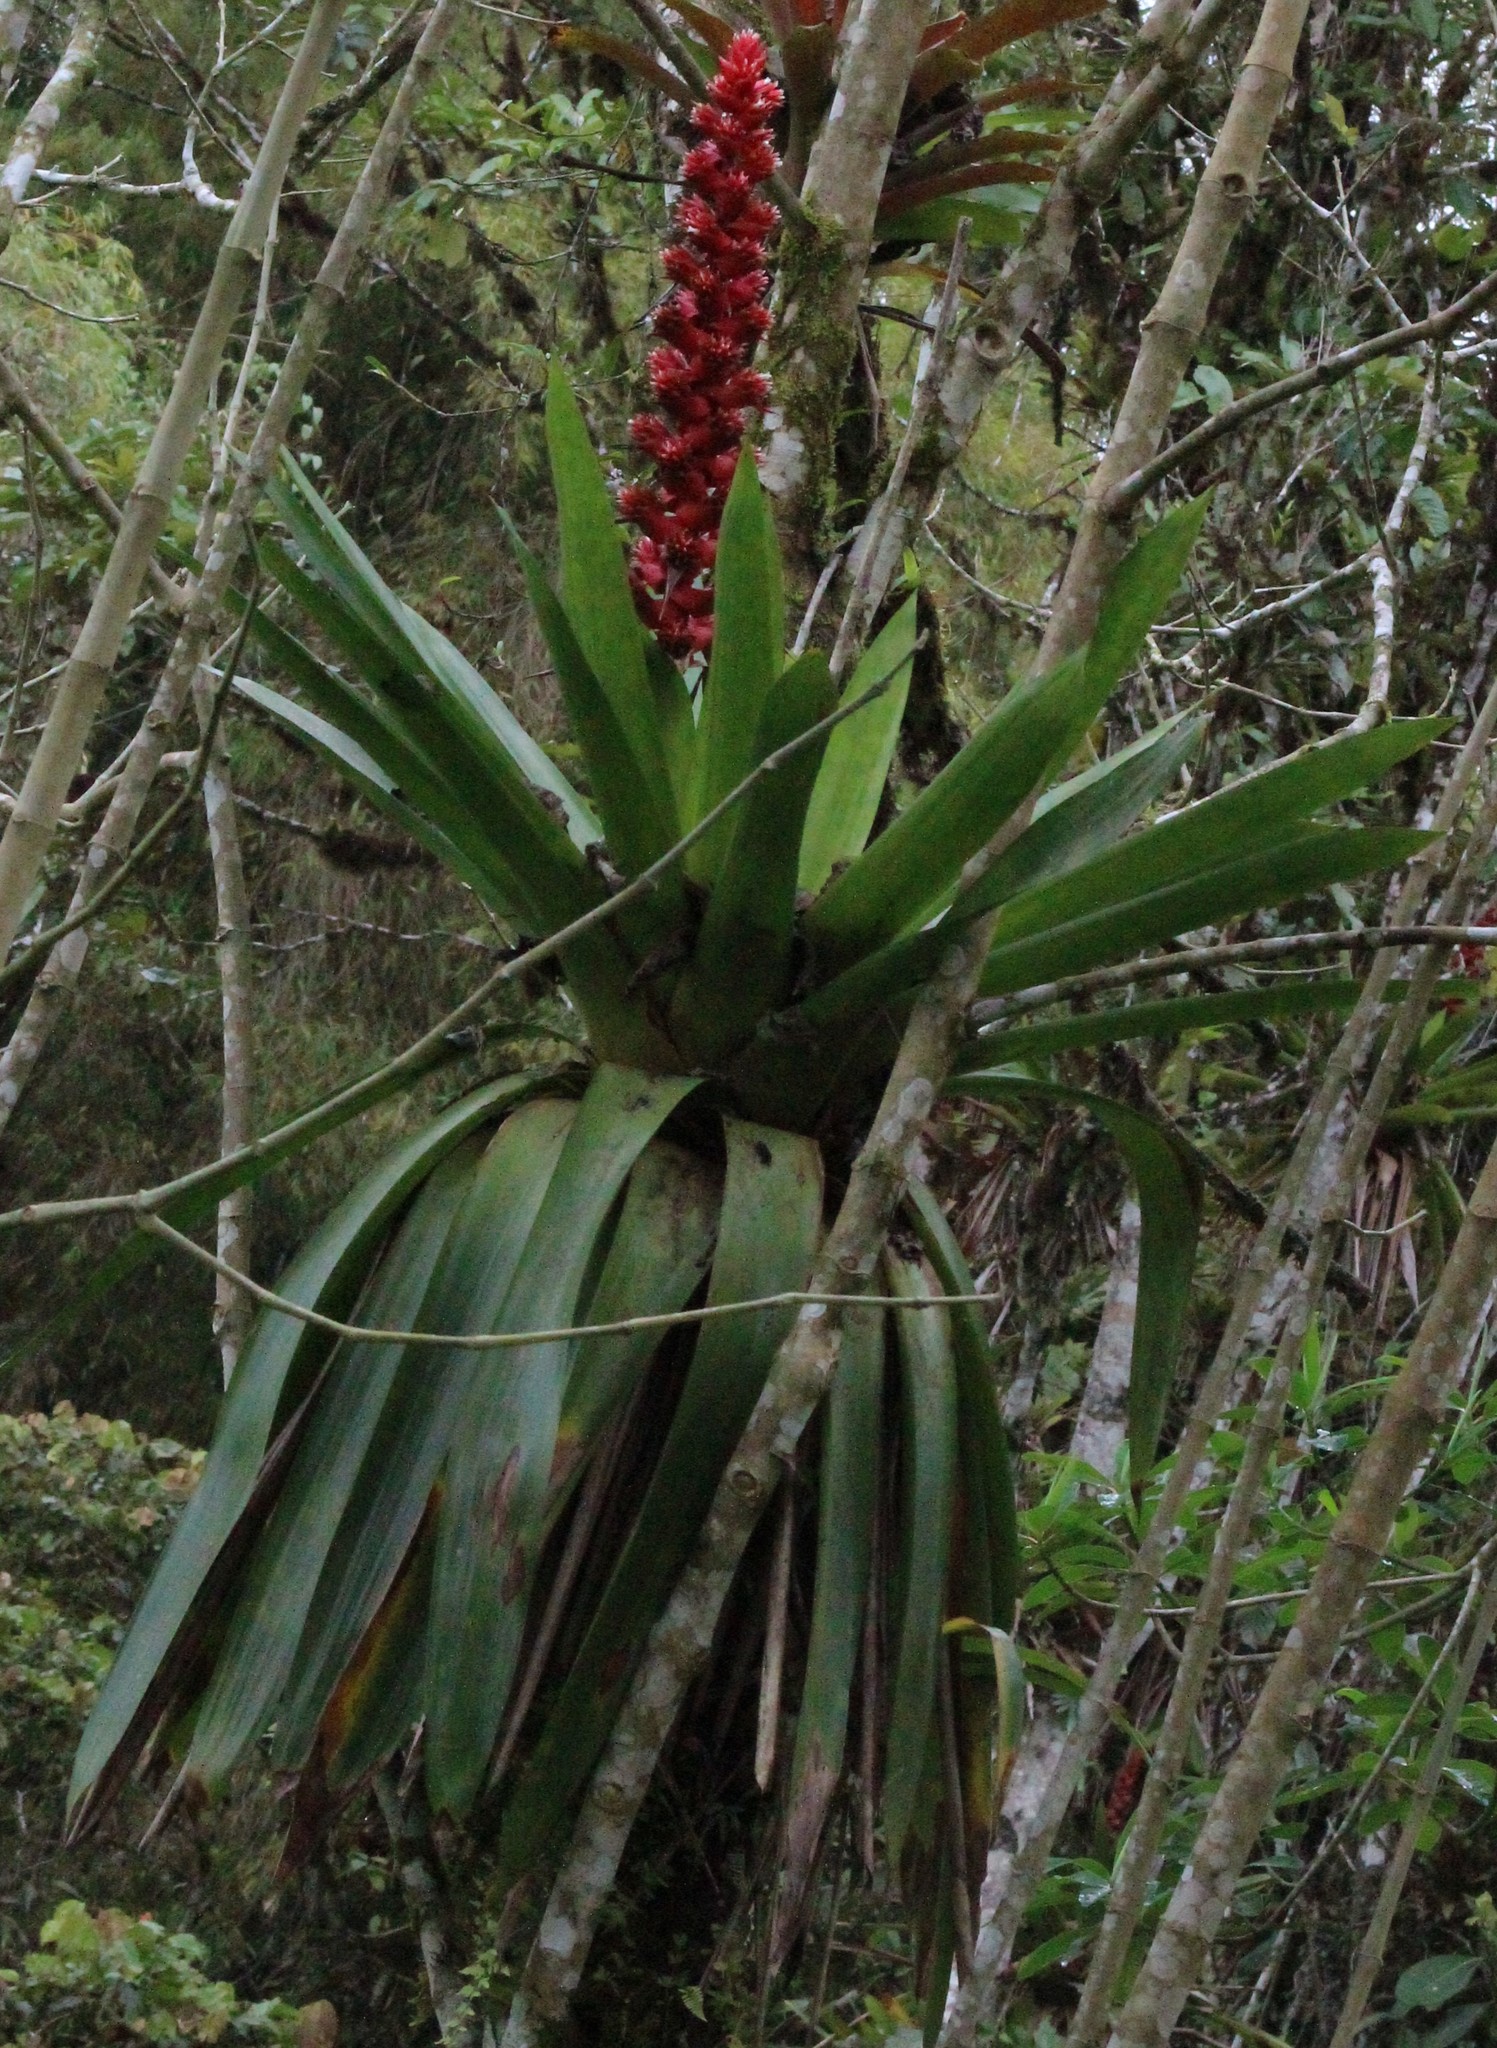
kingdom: Plantae
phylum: Tracheophyta
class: Liliopsida
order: Poales
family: Bromeliaceae
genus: Cipuropsis
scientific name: Cipuropsis capituligera
